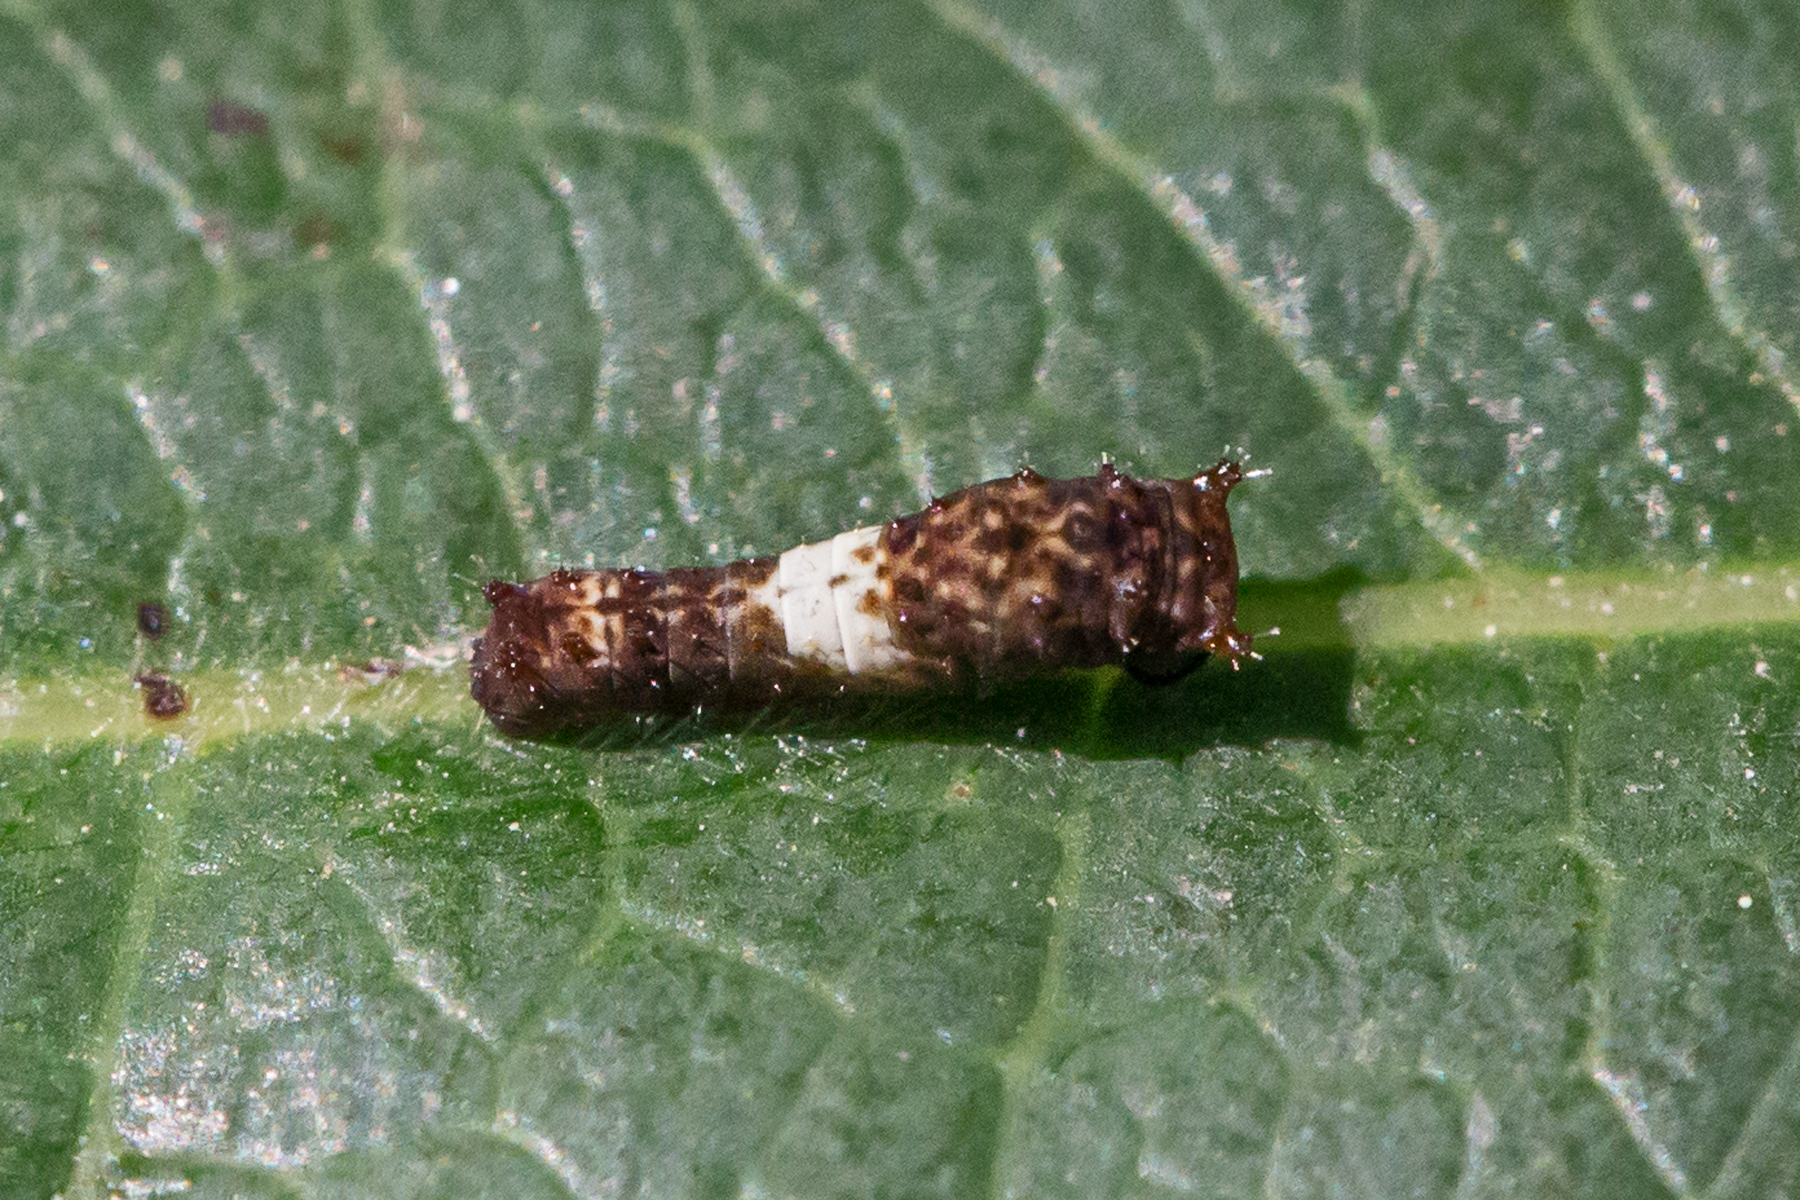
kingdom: Animalia
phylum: Arthropoda
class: Insecta
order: Lepidoptera
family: Papilionidae
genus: Papilio
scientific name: Papilio glaucus
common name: Tiger swallowtail
